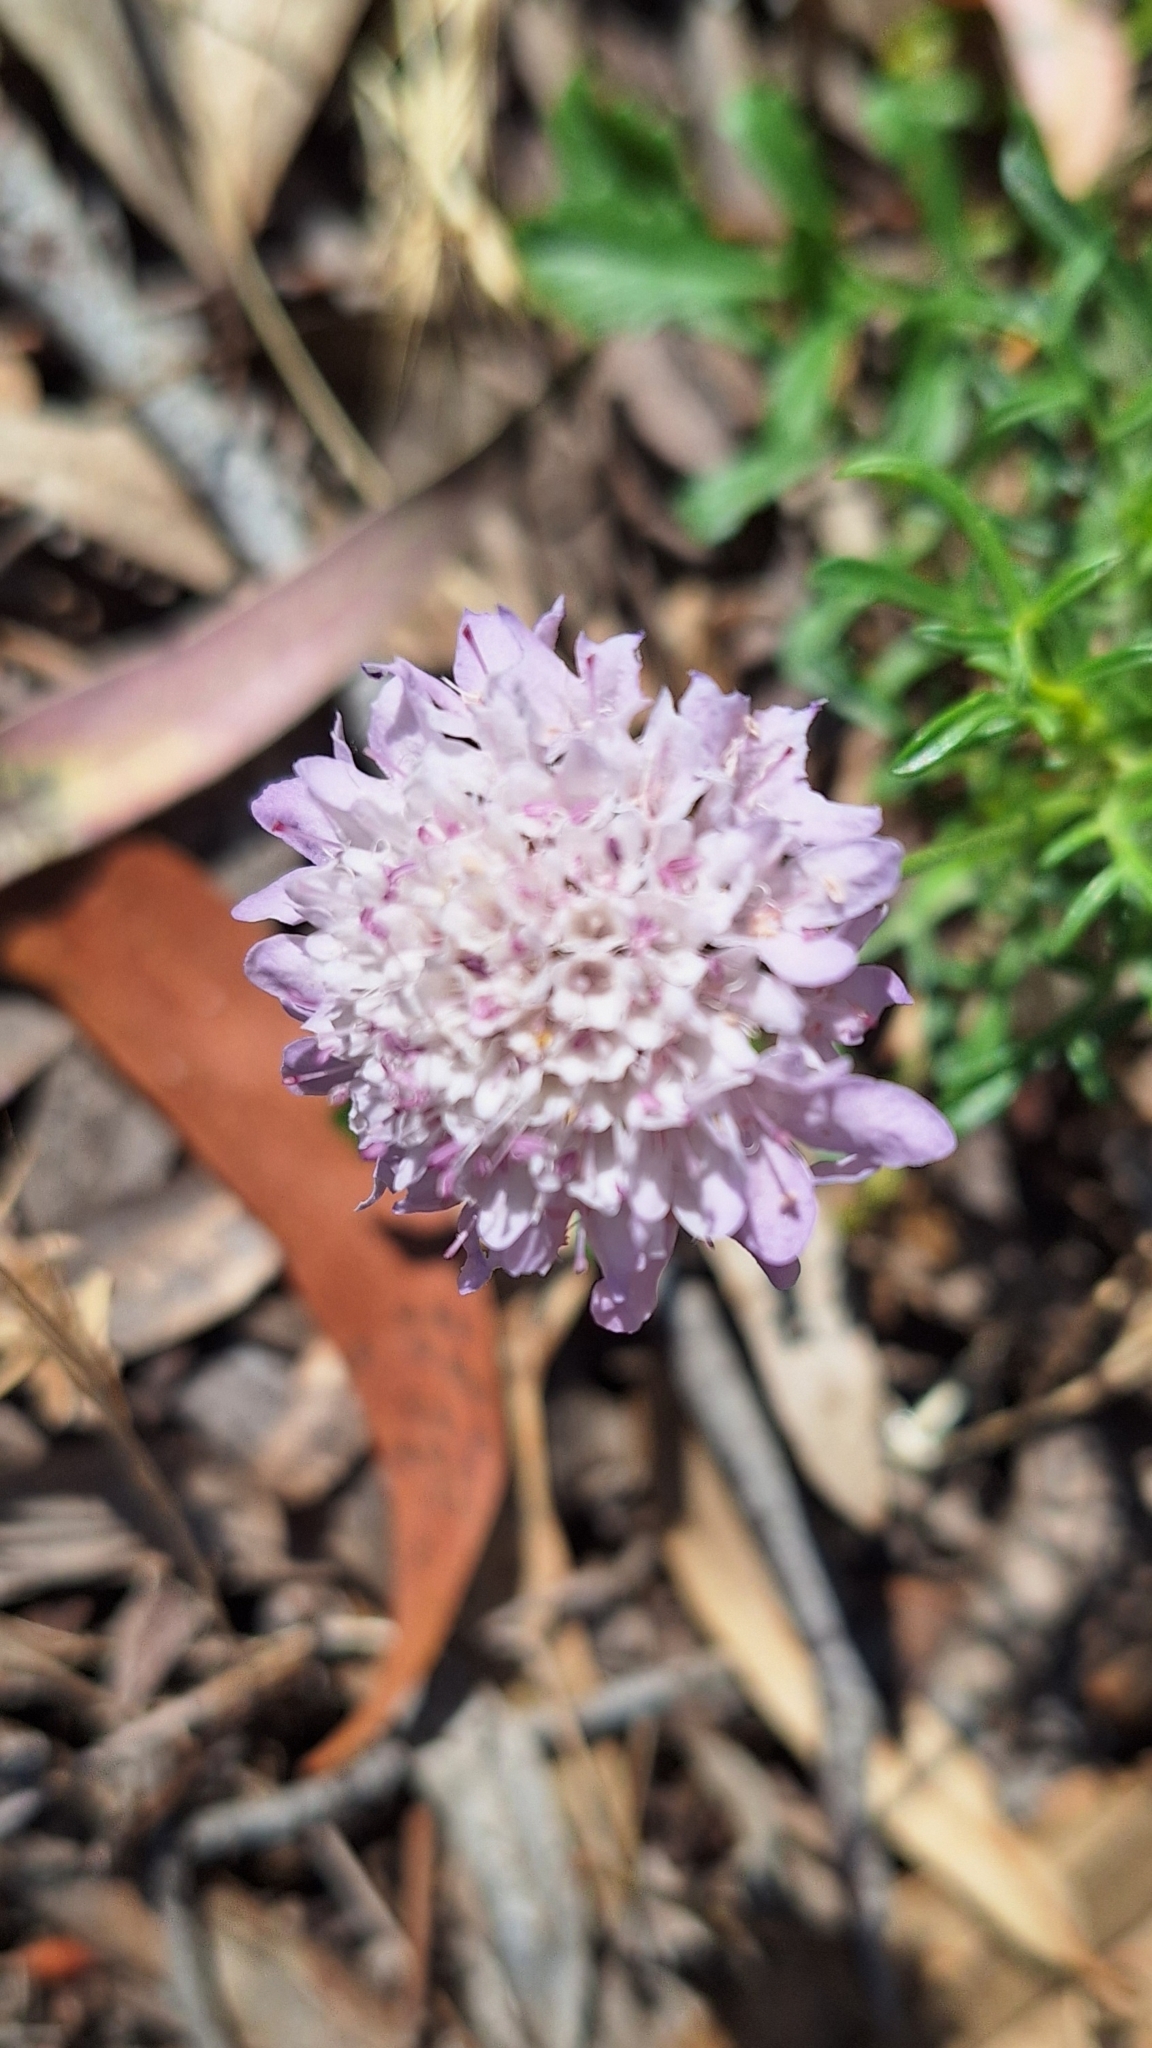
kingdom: Plantae
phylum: Tracheophyta
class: Magnoliopsida
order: Dipsacales
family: Caprifoliaceae
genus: Sixalix
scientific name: Sixalix atropurpurea
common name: Sweet scabious
